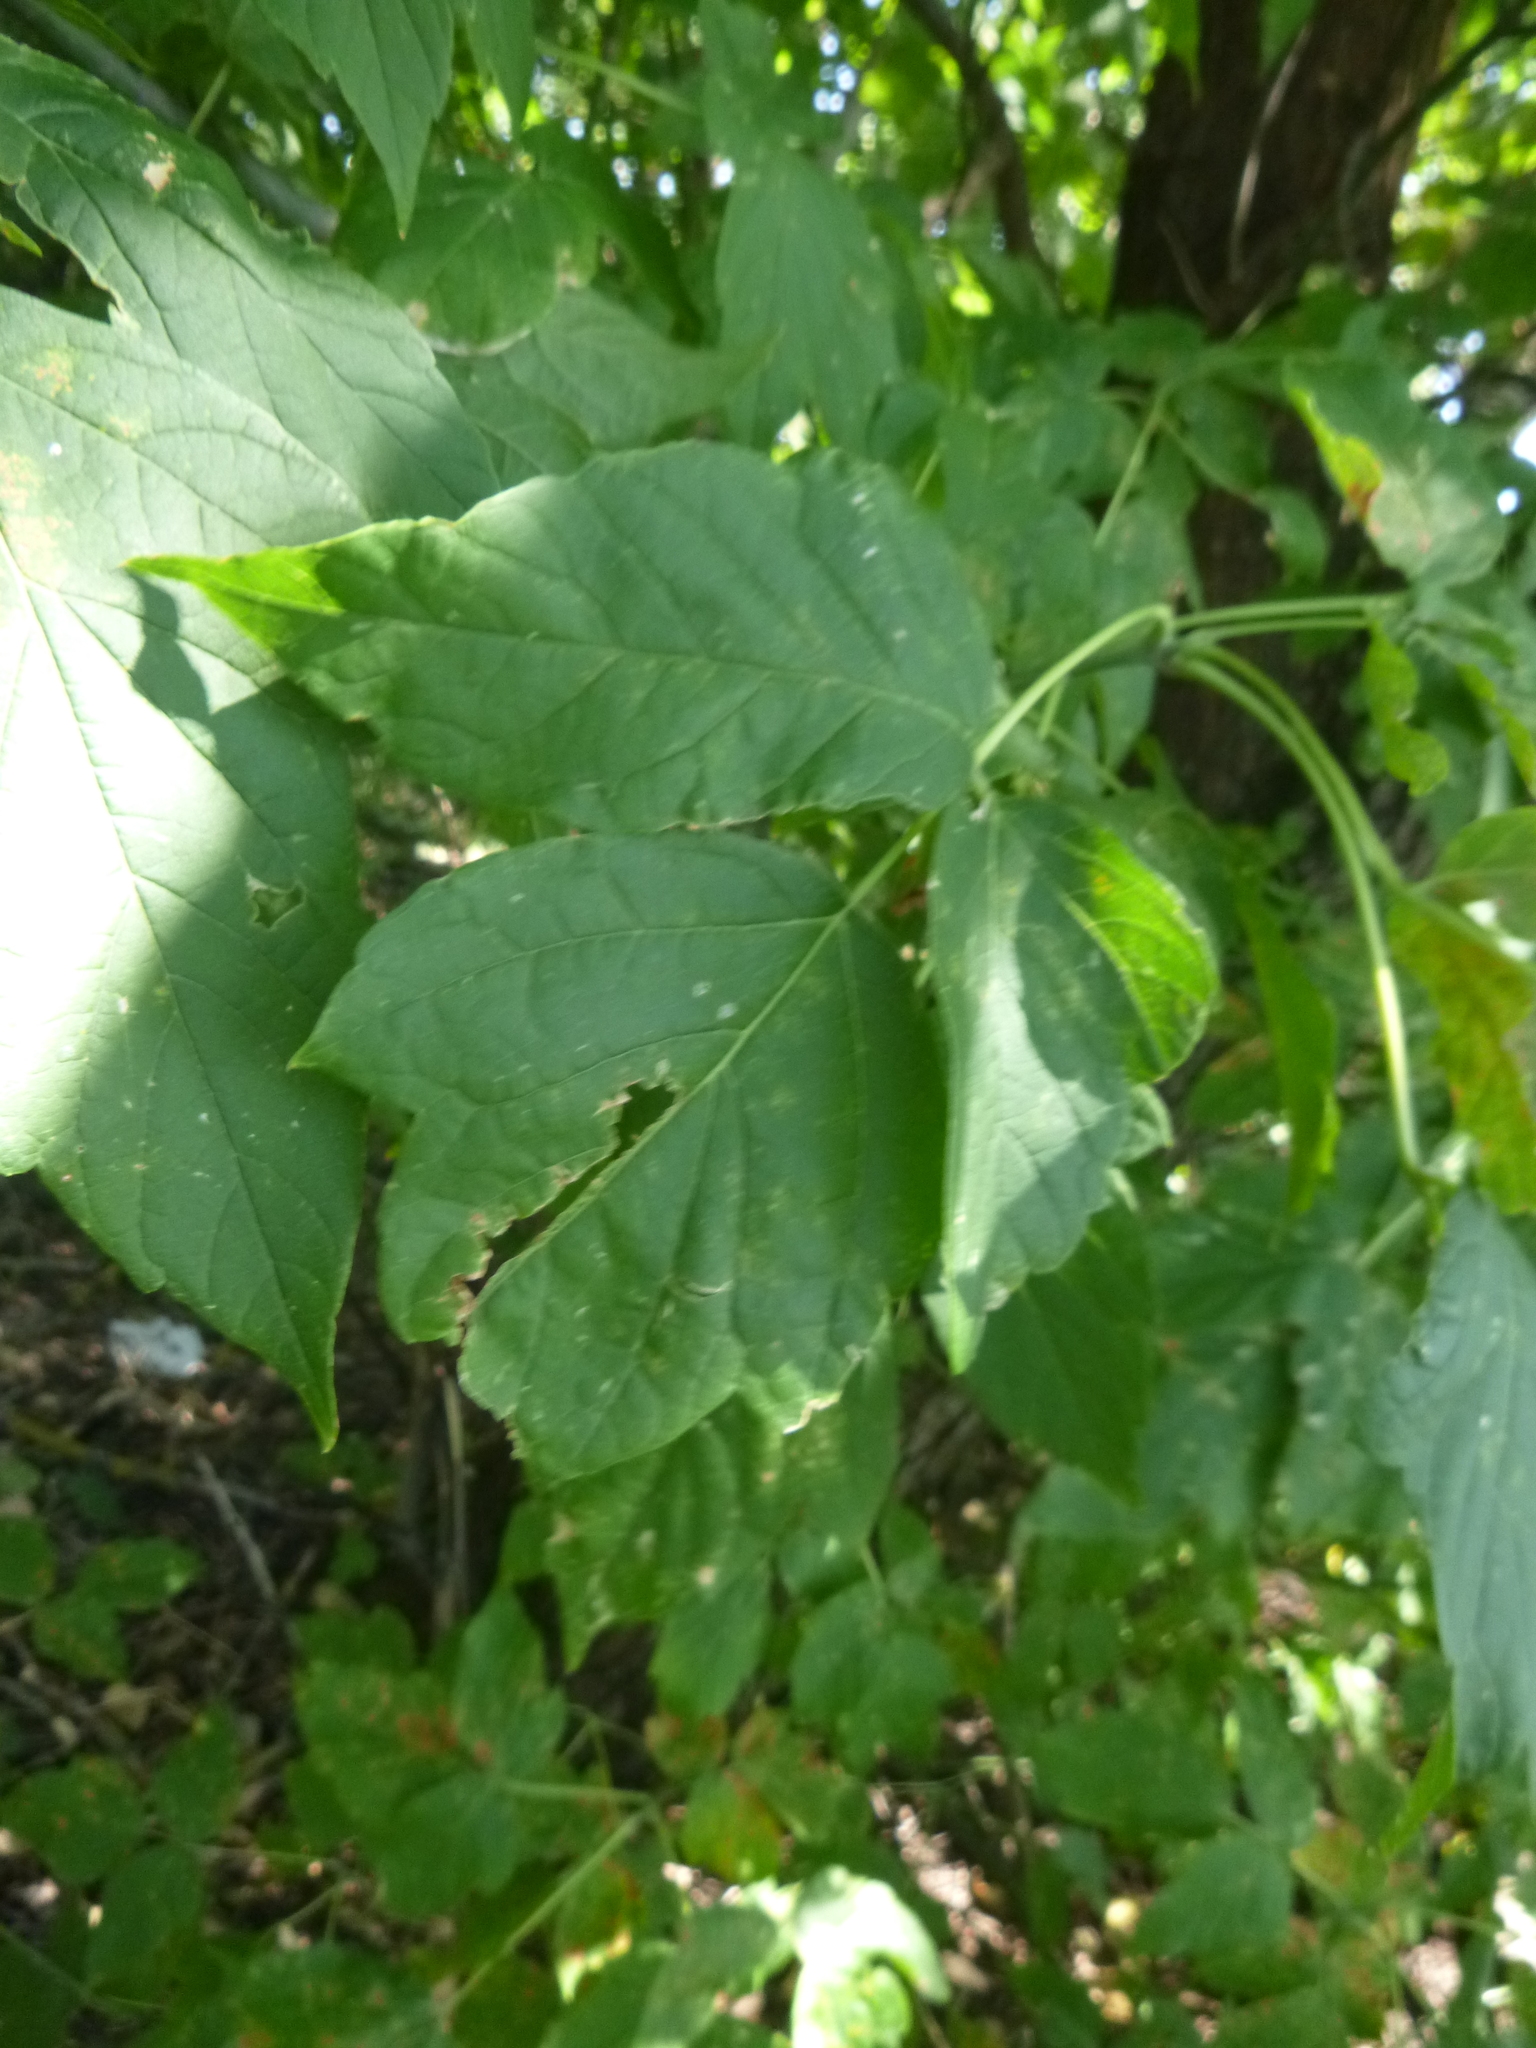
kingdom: Plantae
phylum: Tracheophyta
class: Magnoliopsida
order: Sapindales
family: Sapindaceae
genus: Acer
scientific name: Acer negundo
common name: Ashleaf maple
